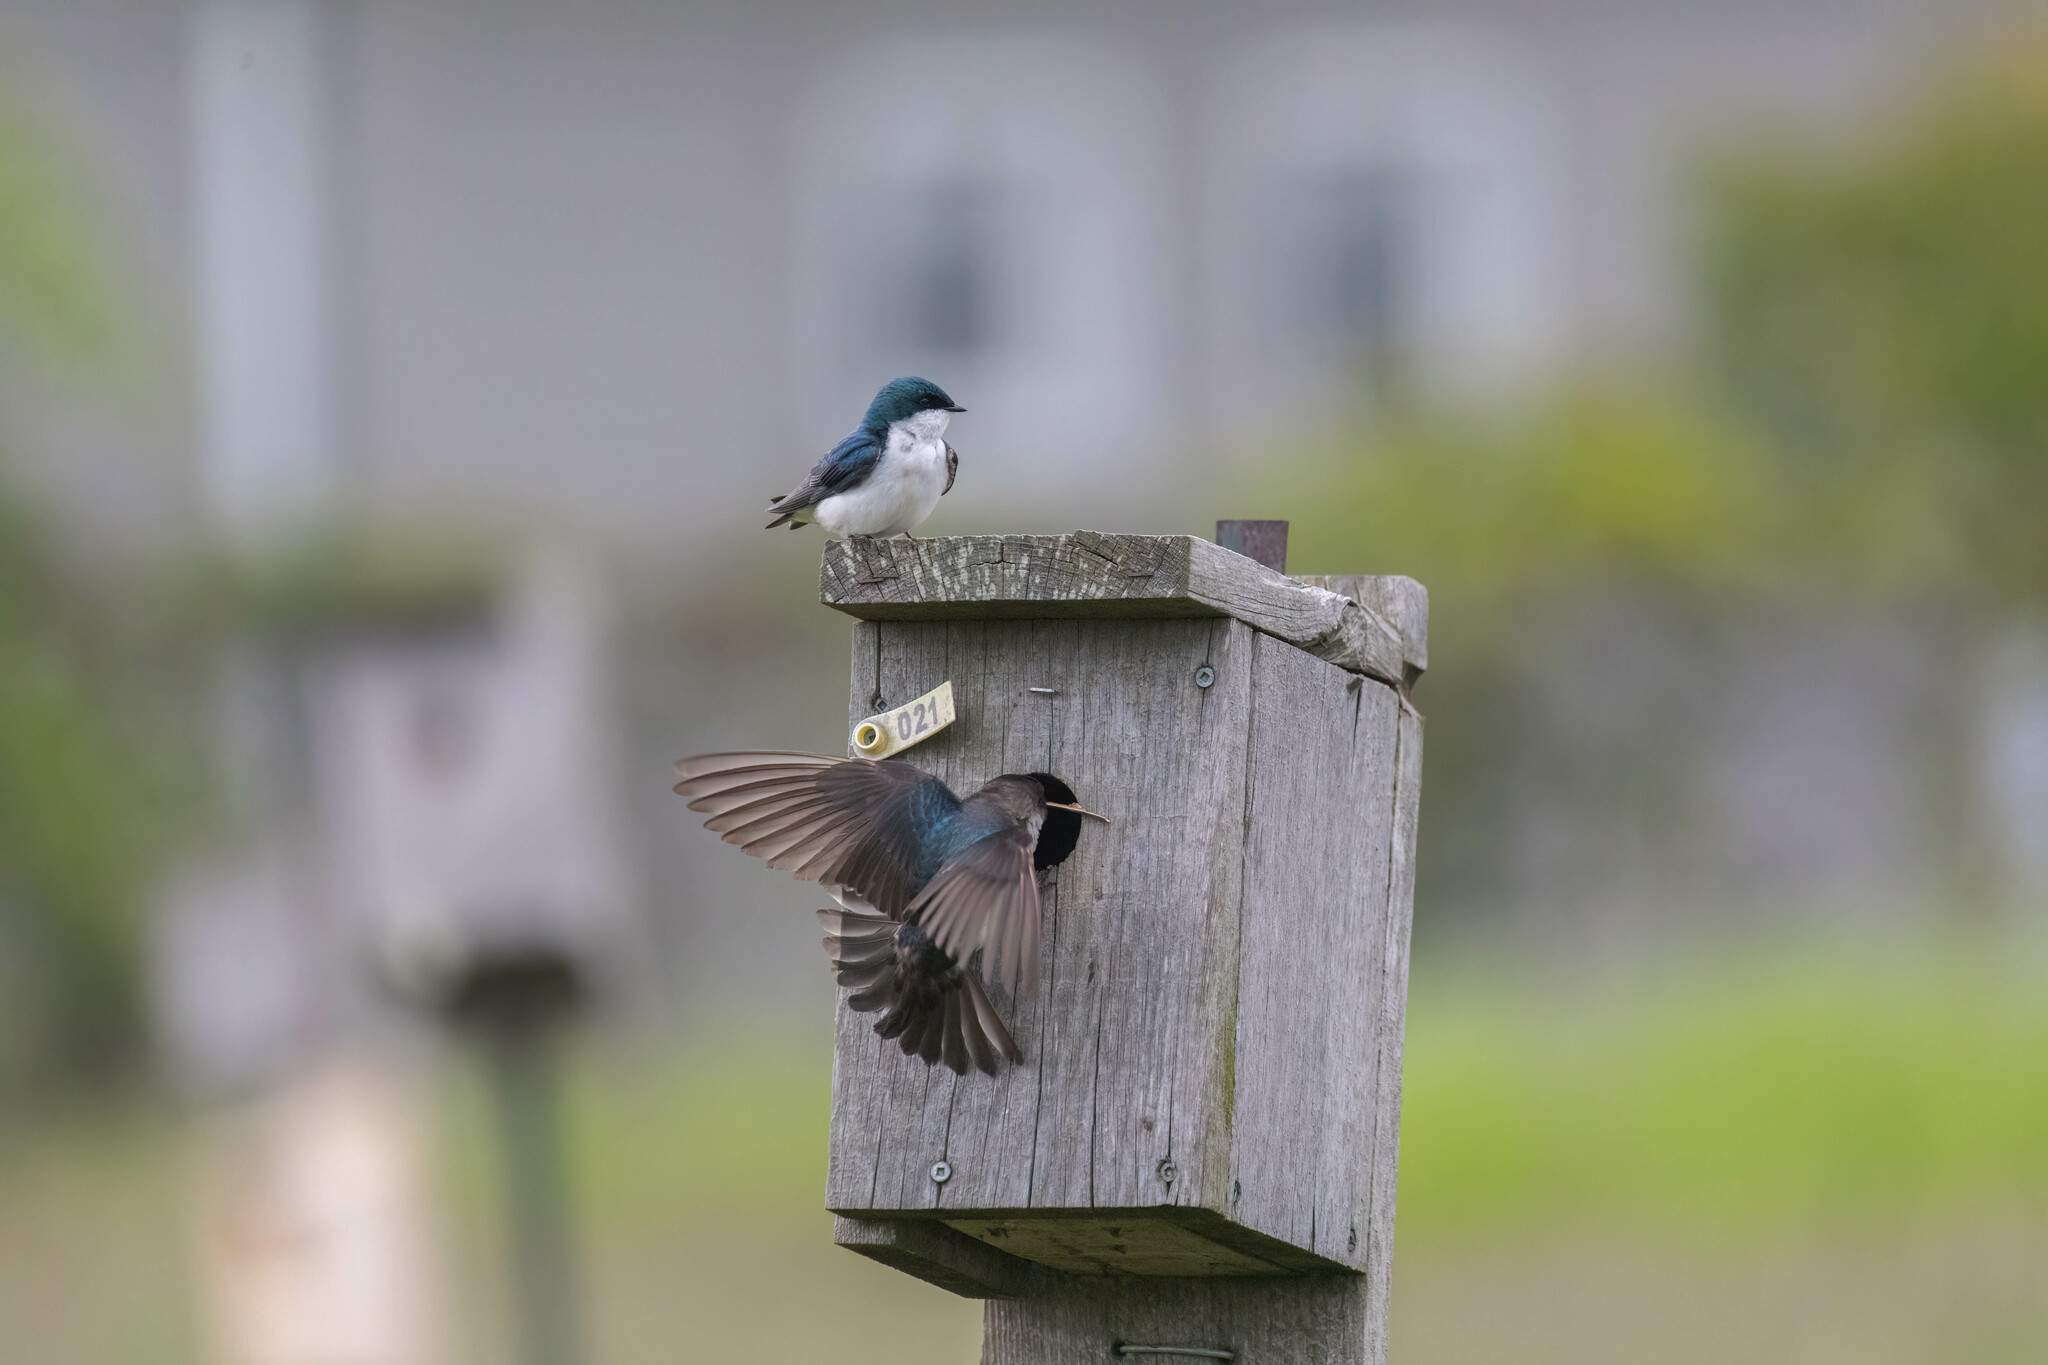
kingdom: Animalia
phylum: Chordata
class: Aves
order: Passeriformes
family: Hirundinidae
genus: Tachycineta
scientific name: Tachycineta bicolor
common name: Tree swallow
